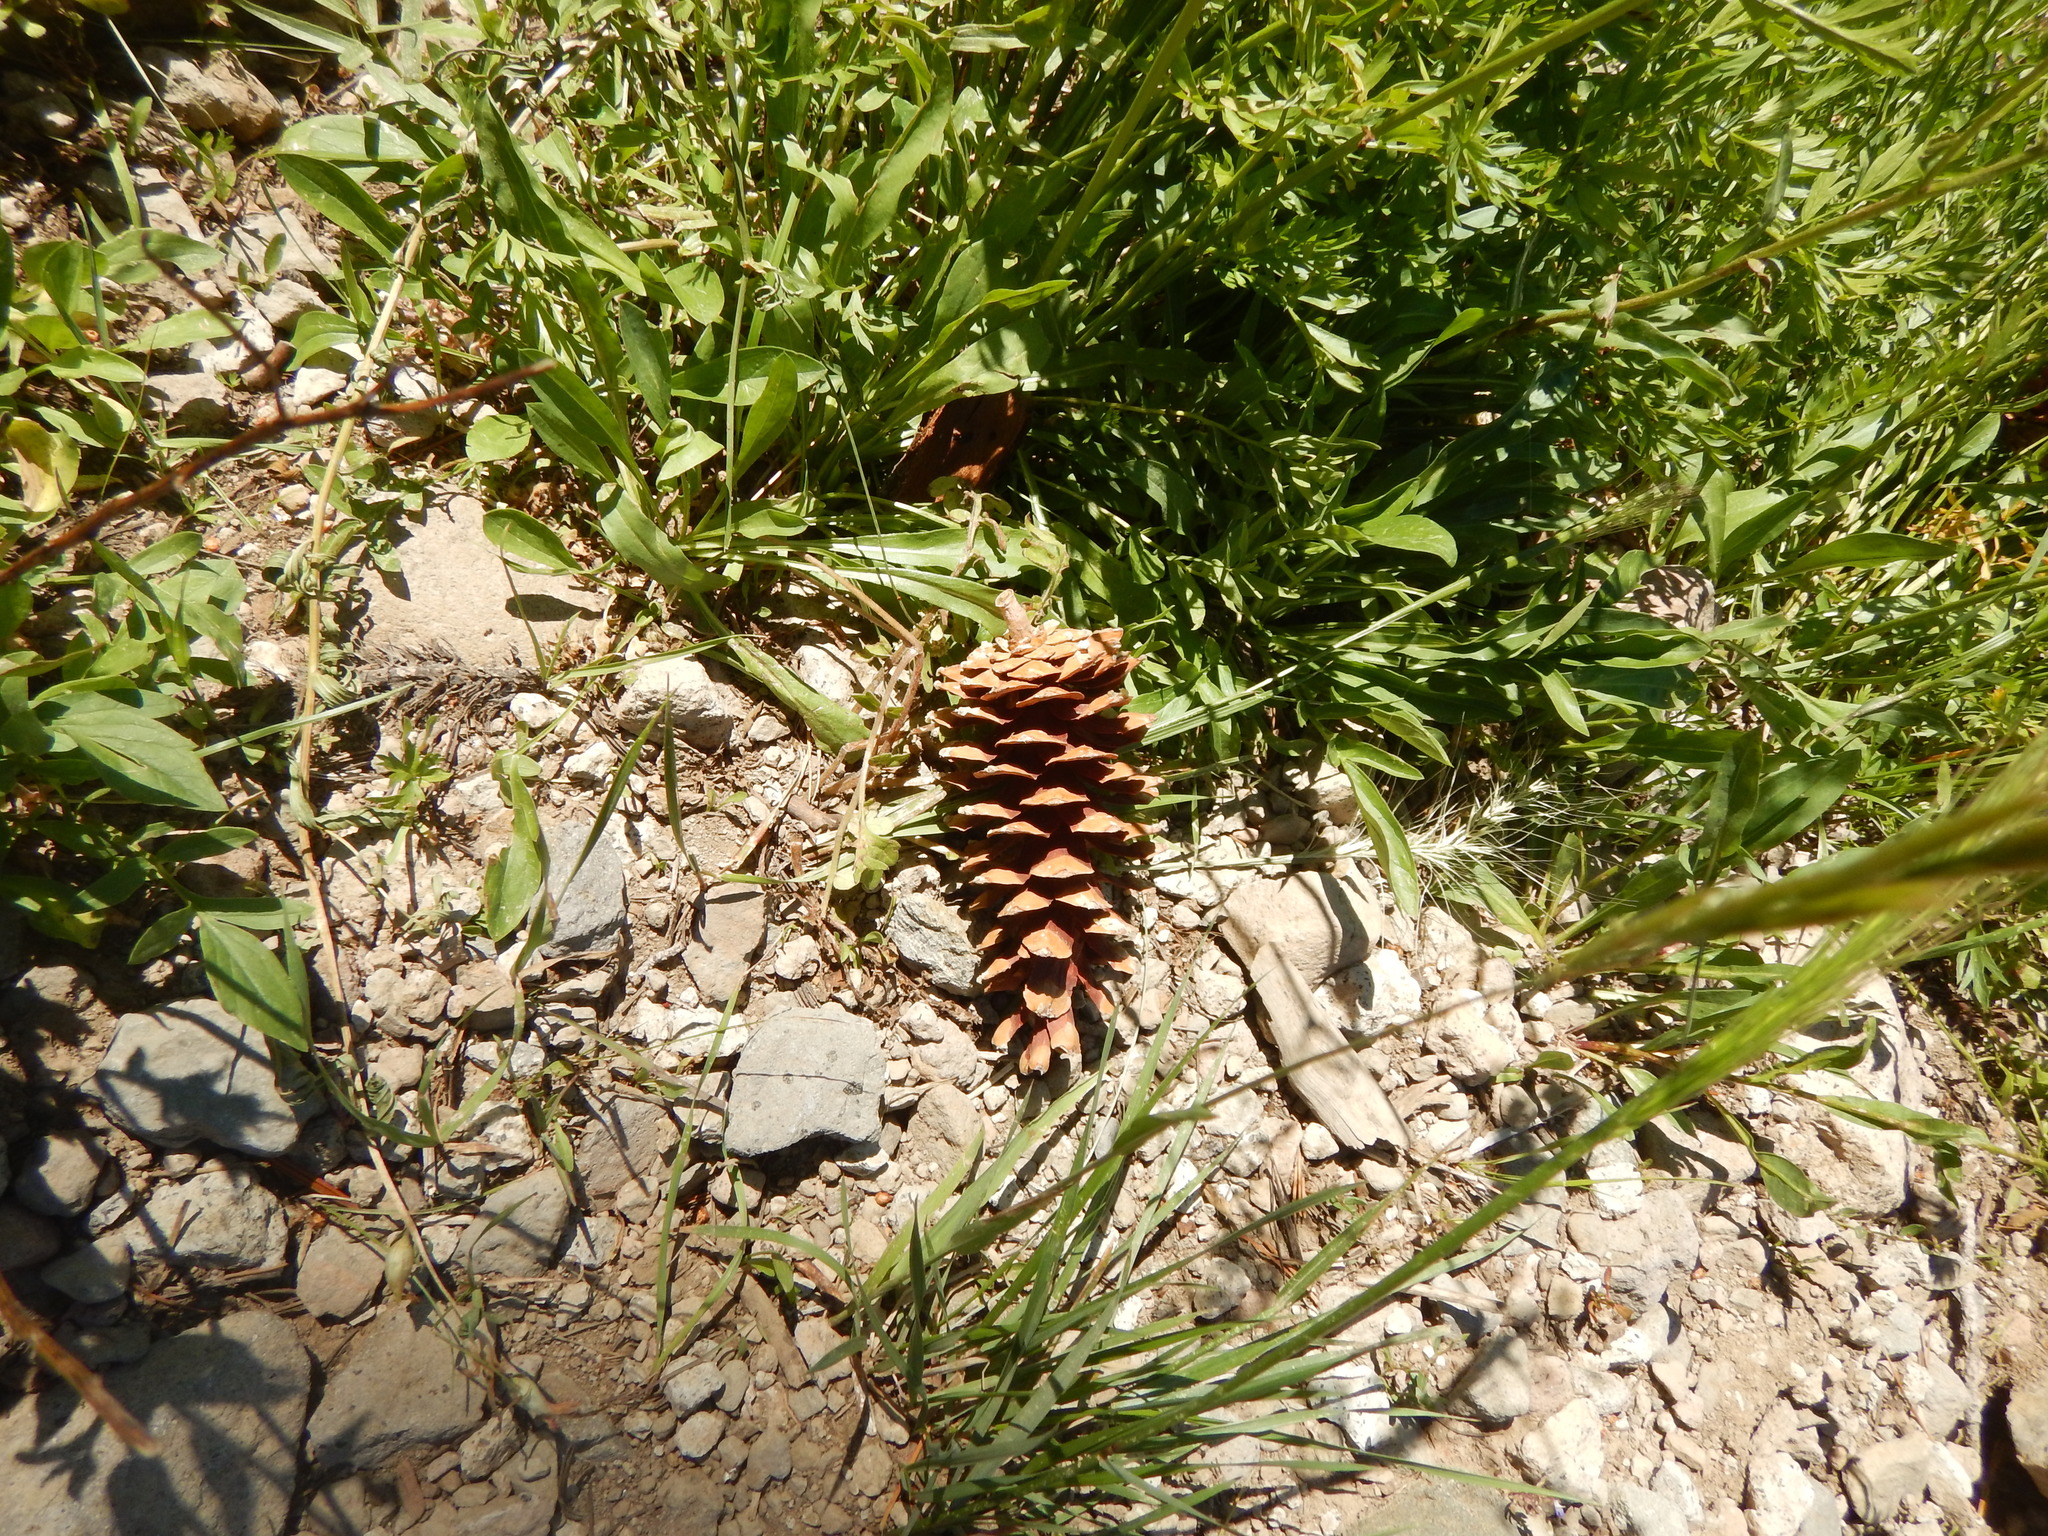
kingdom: Plantae
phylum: Tracheophyta
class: Pinopsida
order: Pinales
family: Pinaceae
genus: Pinus
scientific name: Pinus monticola
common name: Western white pine
